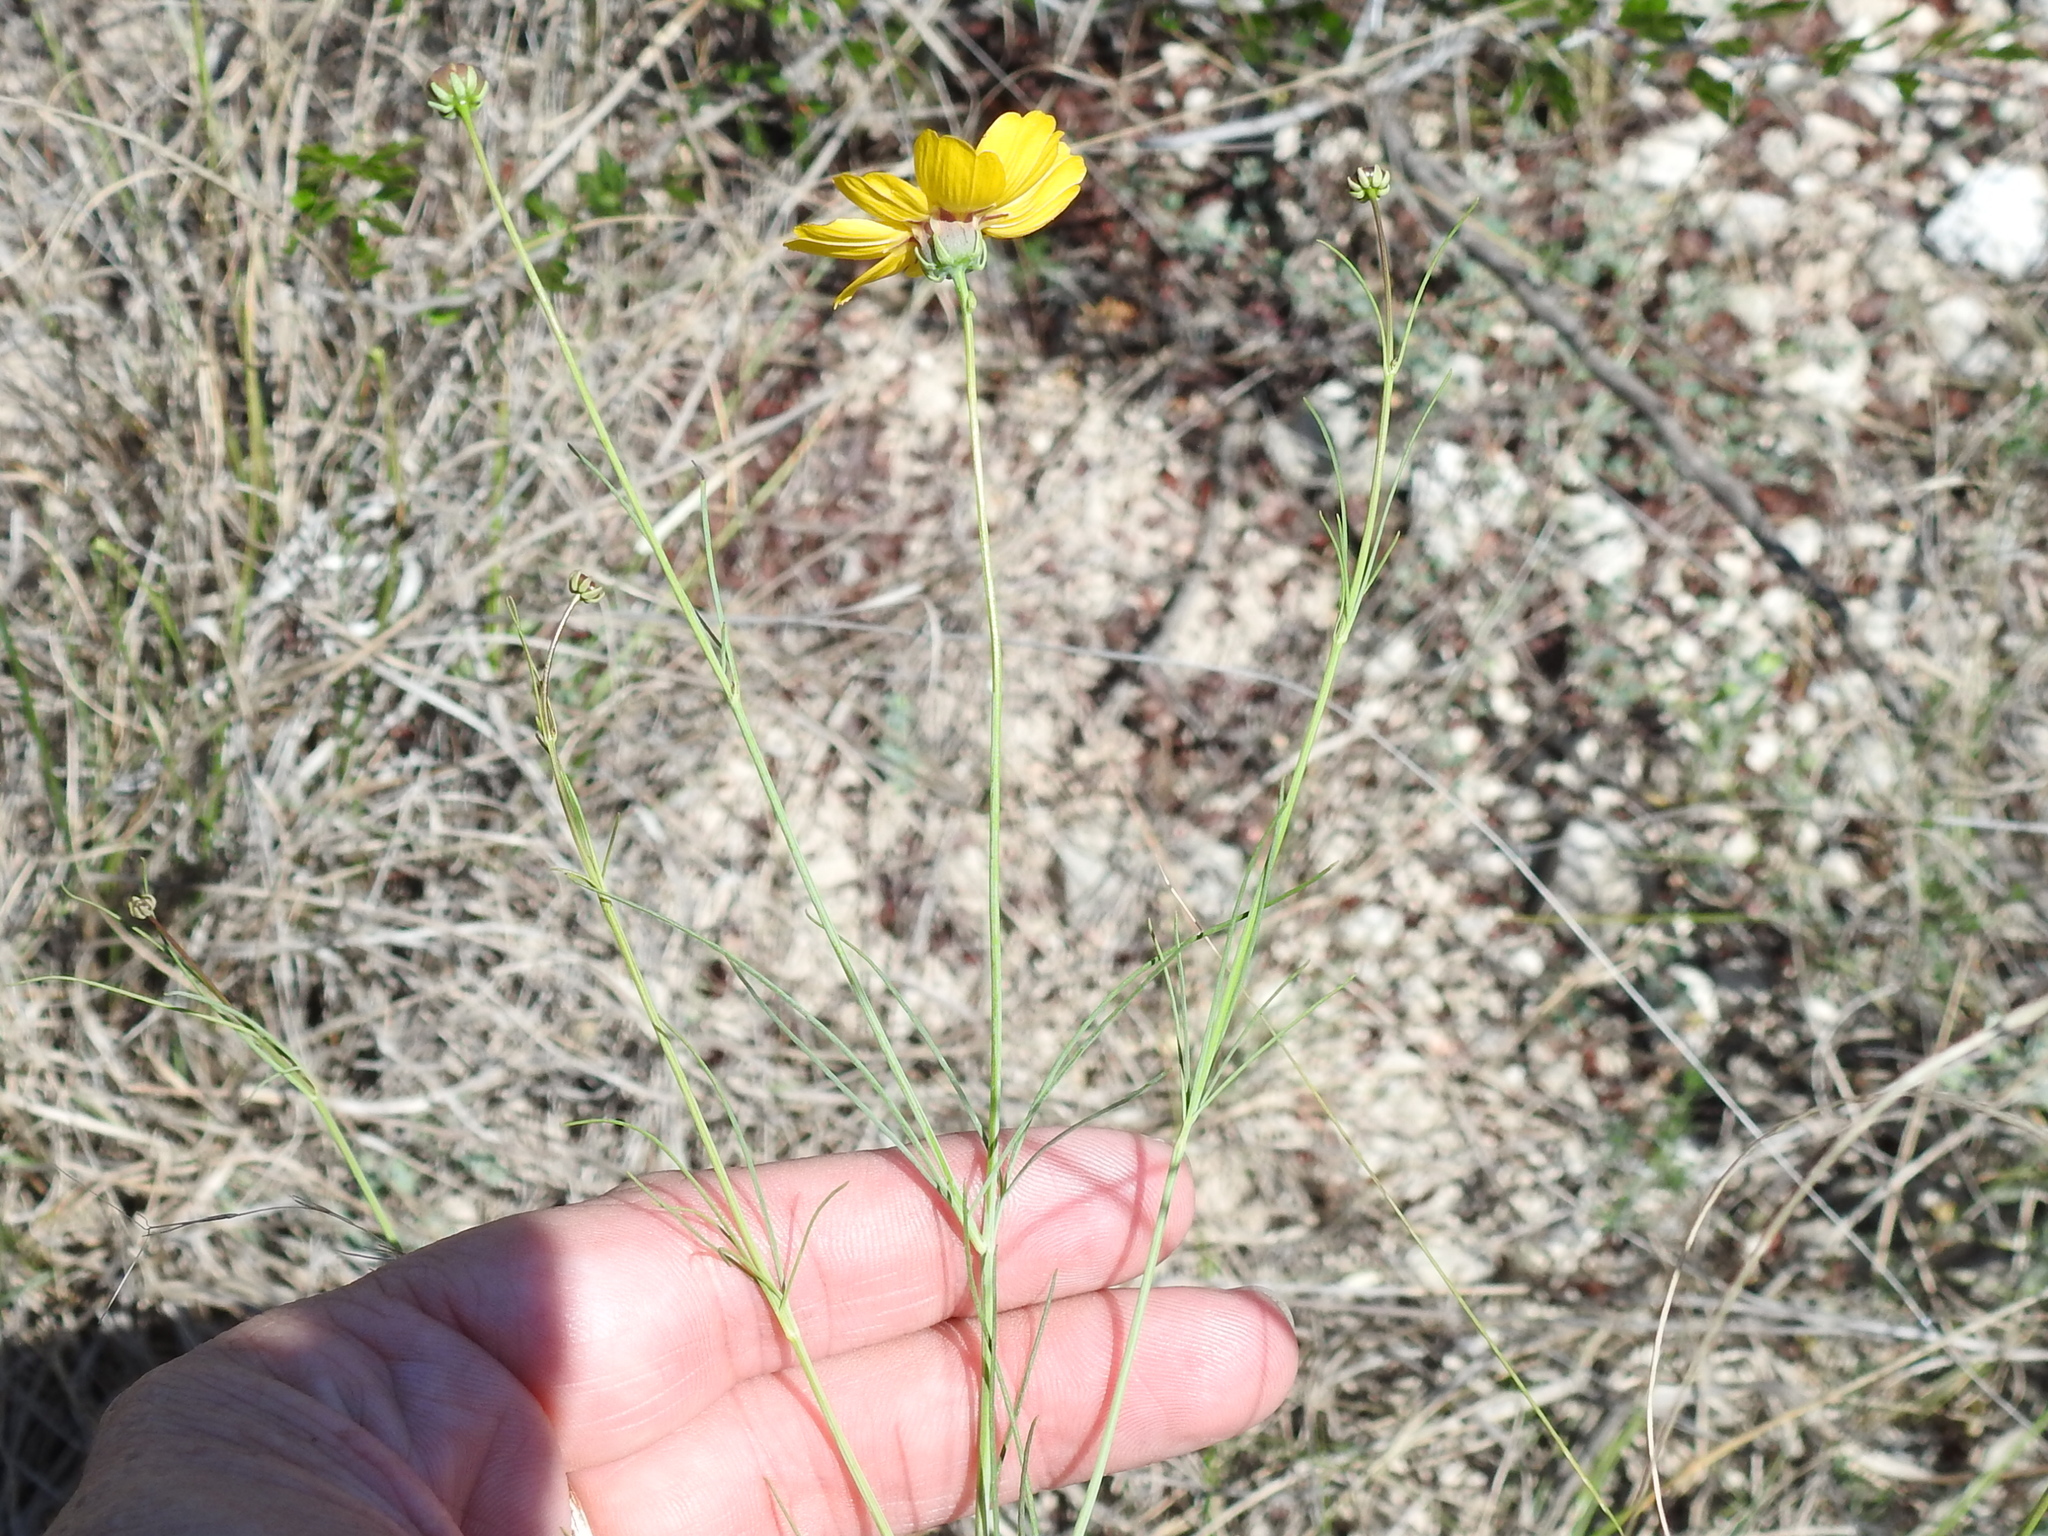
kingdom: Plantae
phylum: Tracheophyta
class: Magnoliopsida
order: Asterales
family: Asteraceae
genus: Thelesperma
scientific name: Thelesperma simplicifolium
